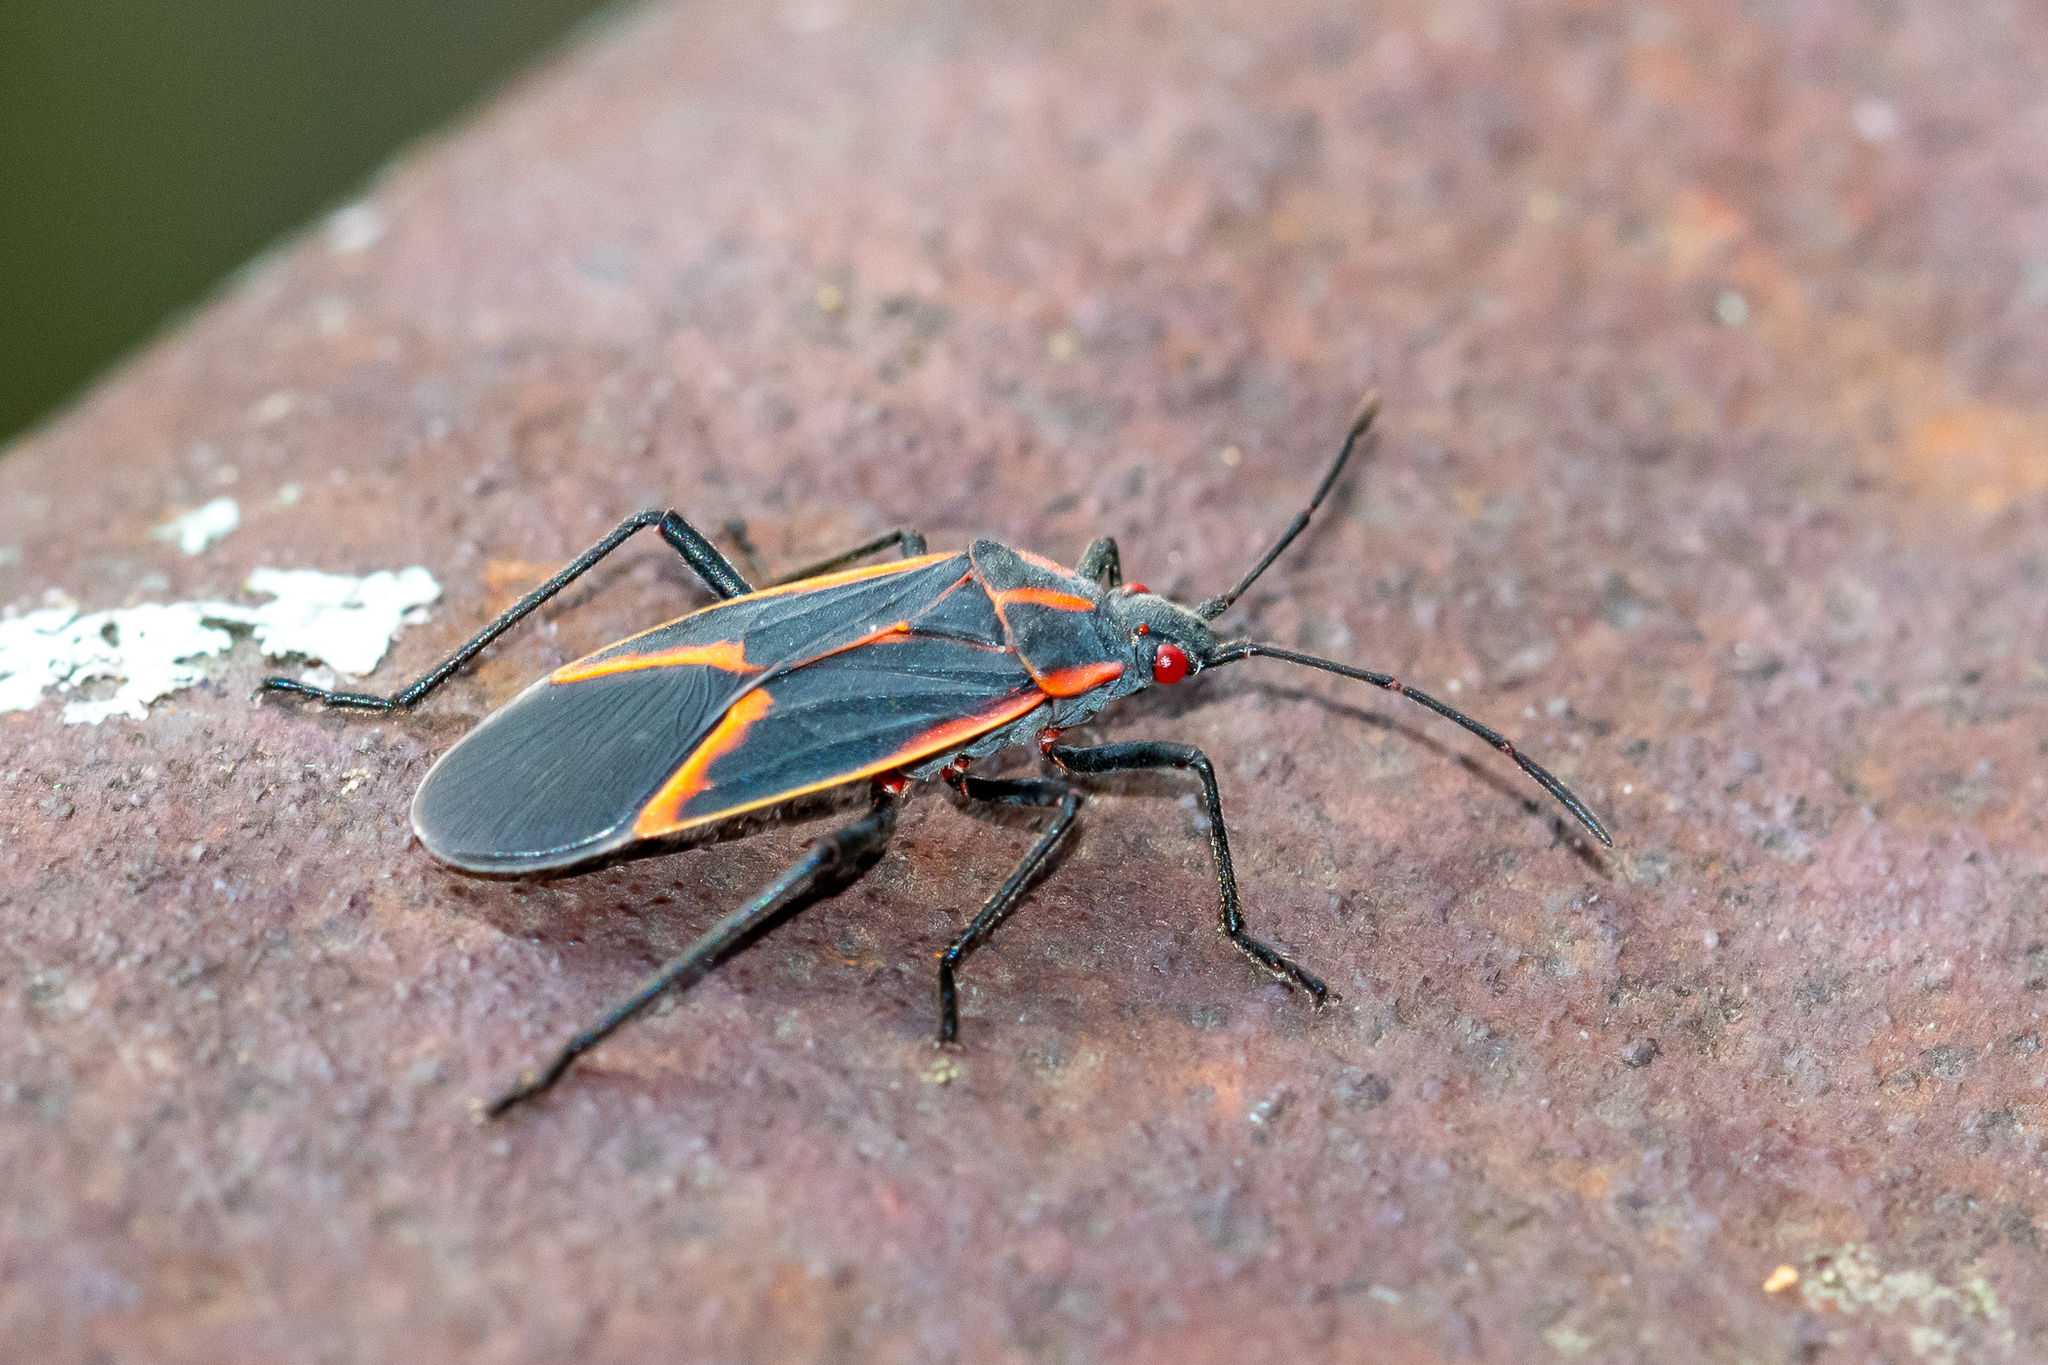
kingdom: Animalia
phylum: Arthropoda
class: Insecta
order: Hemiptera
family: Rhopalidae
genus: Boisea
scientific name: Boisea trivittata
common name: Boxelder bug
